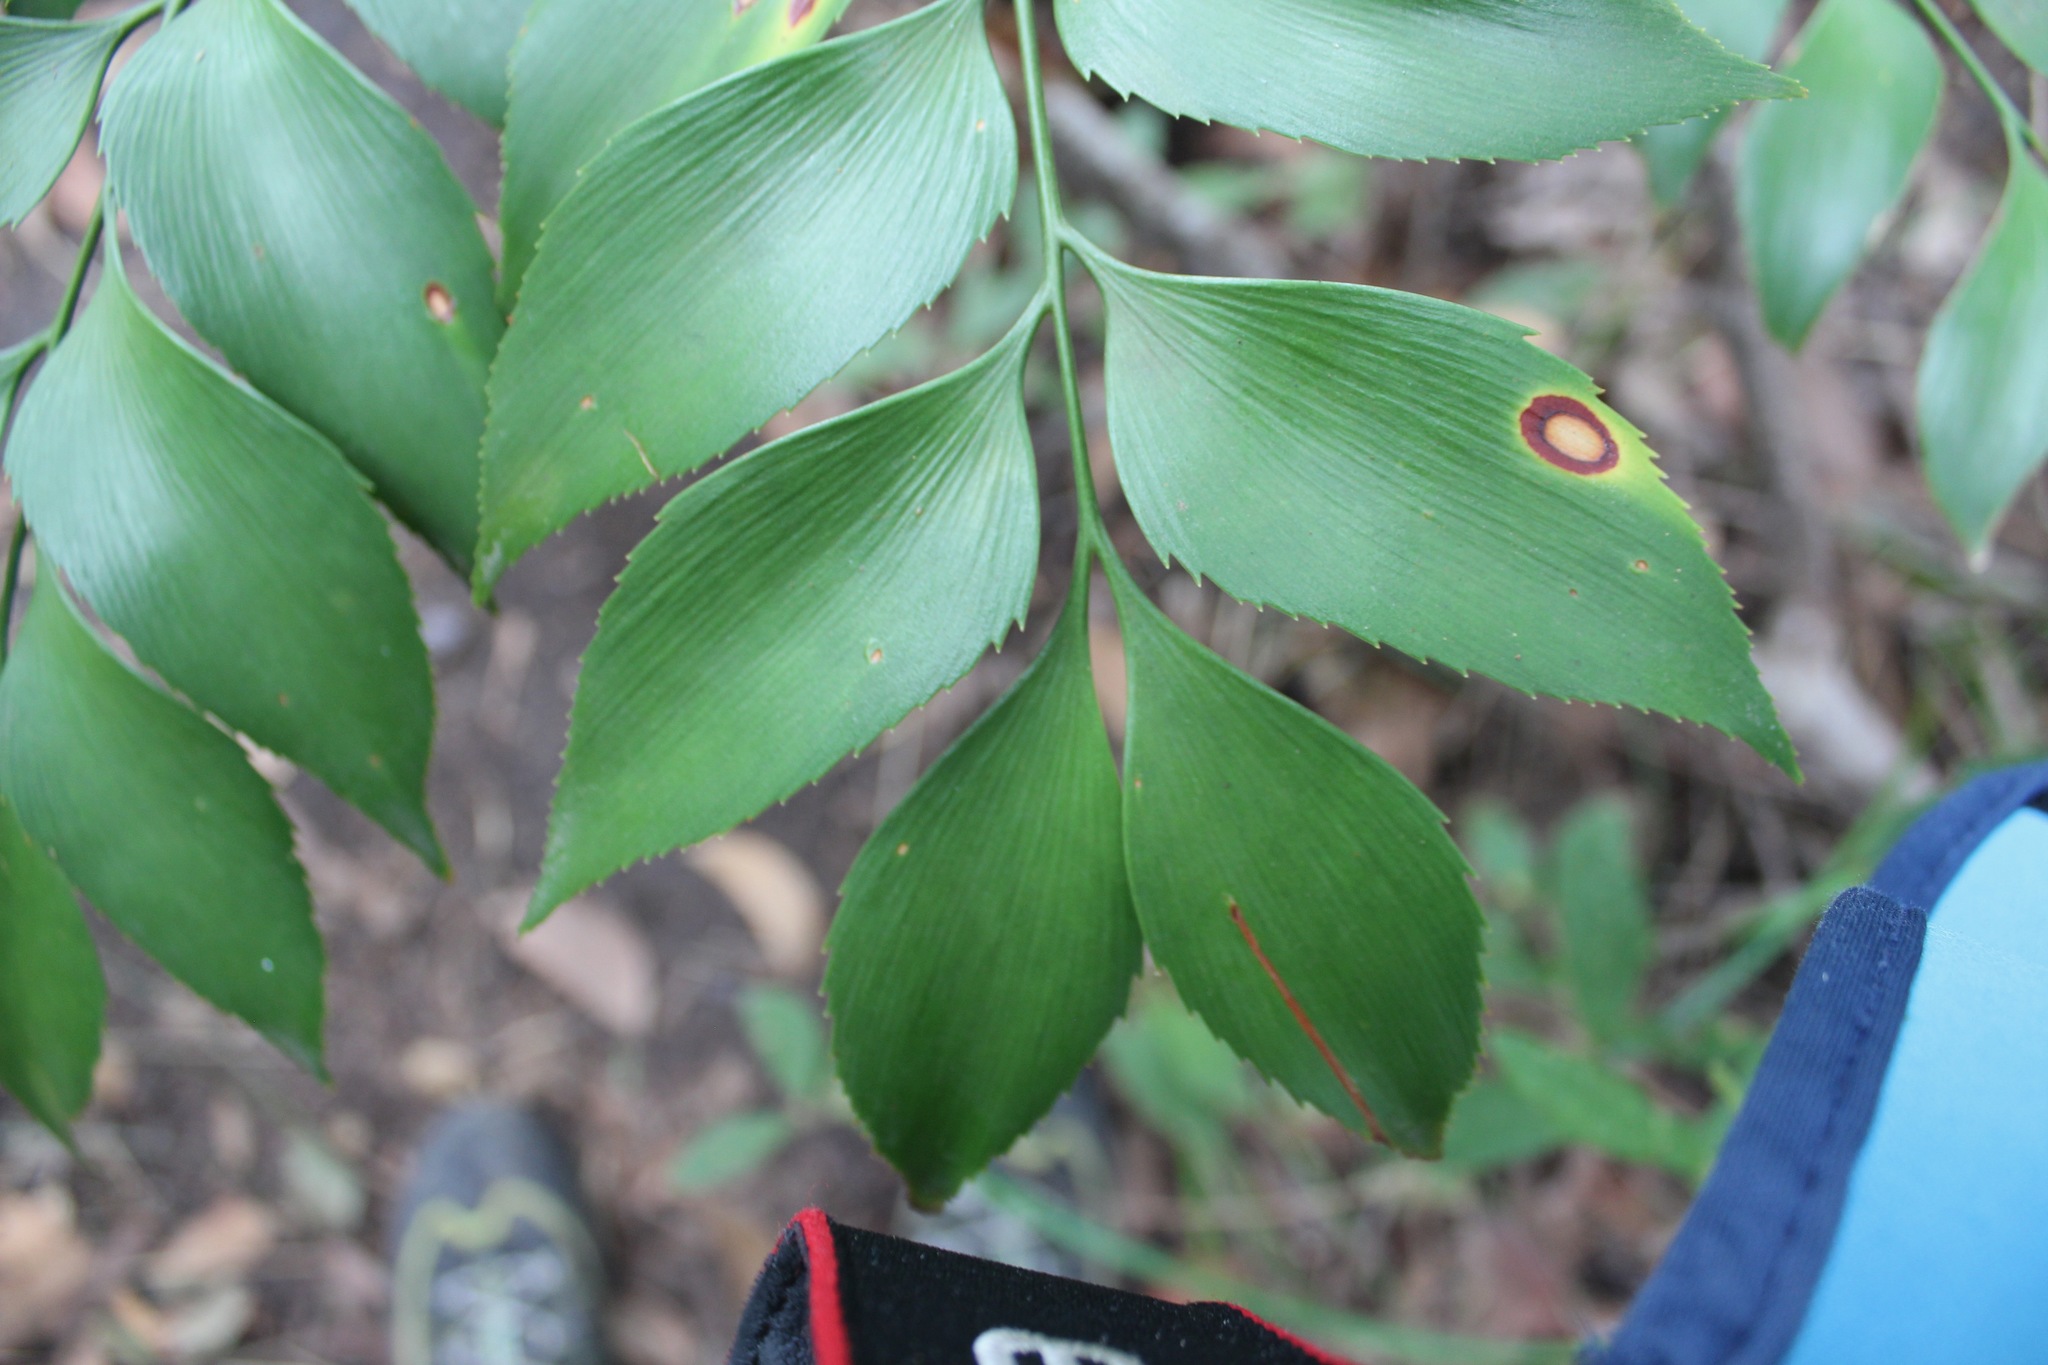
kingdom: Plantae
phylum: Tracheophyta
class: Cycadopsida
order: Cycadales
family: Zamiaceae
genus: Bowenia
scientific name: Bowenia serrulata
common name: Byfield fern
